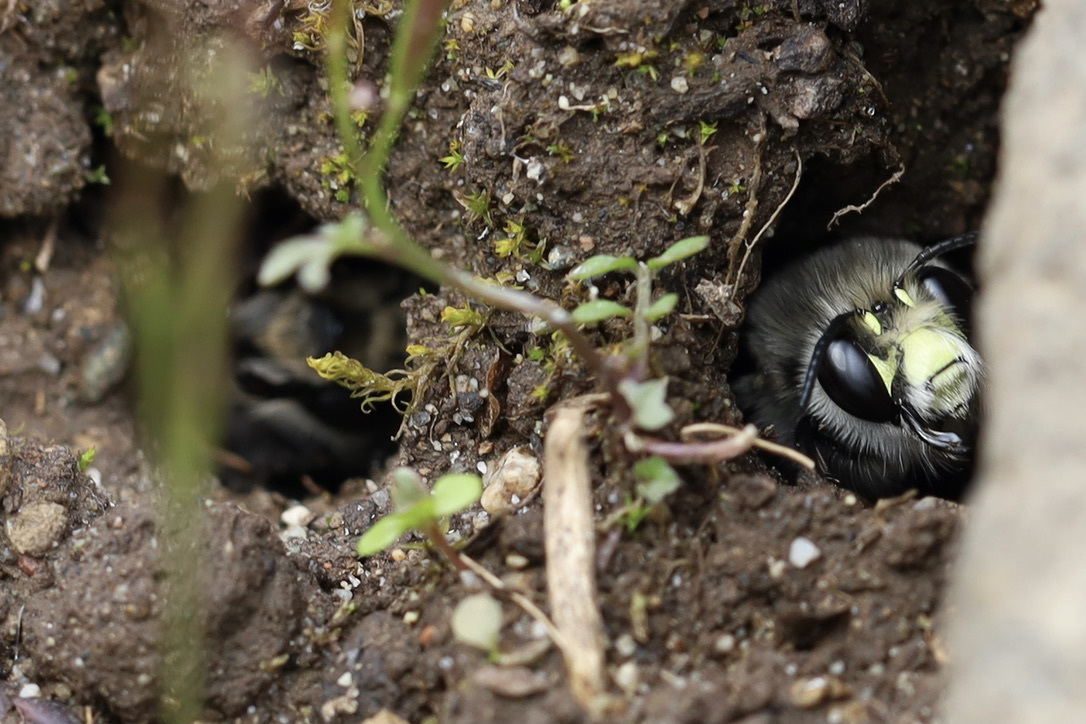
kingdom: Animalia
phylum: Arthropoda
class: Insecta
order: Hymenoptera
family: Apidae
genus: Anthophora
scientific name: Anthophora pacifica
